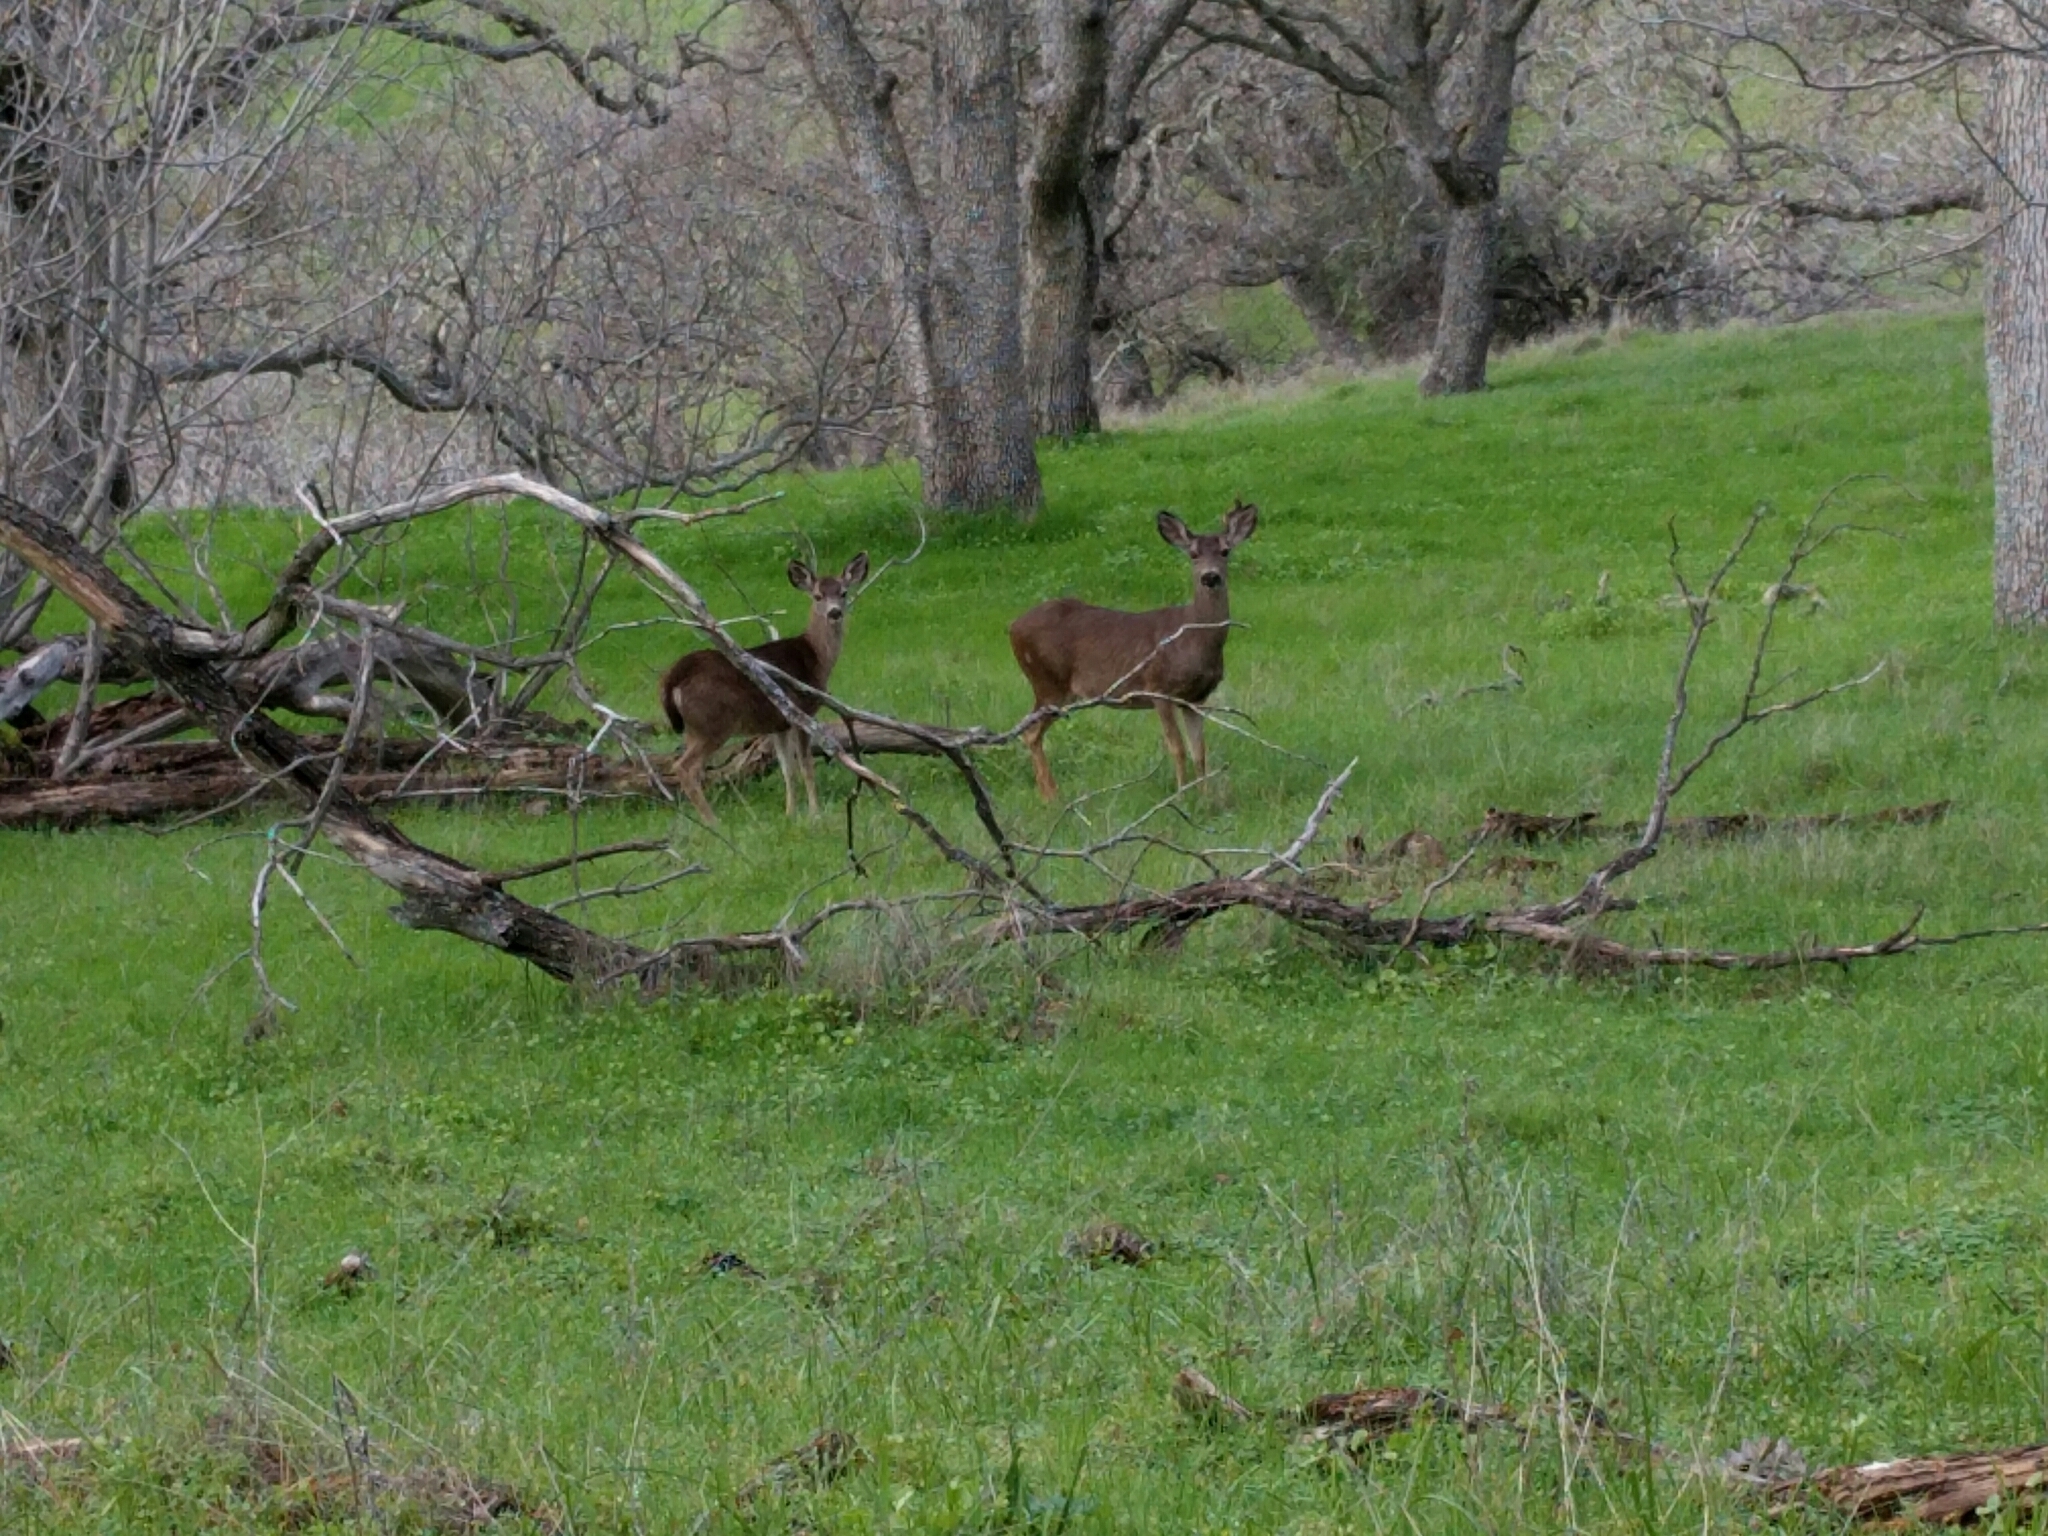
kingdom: Animalia
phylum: Chordata
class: Mammalia
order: Artiodactyla
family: Cervidae
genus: Odocoileus
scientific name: Odocoileus hemionus
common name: Mule deer
